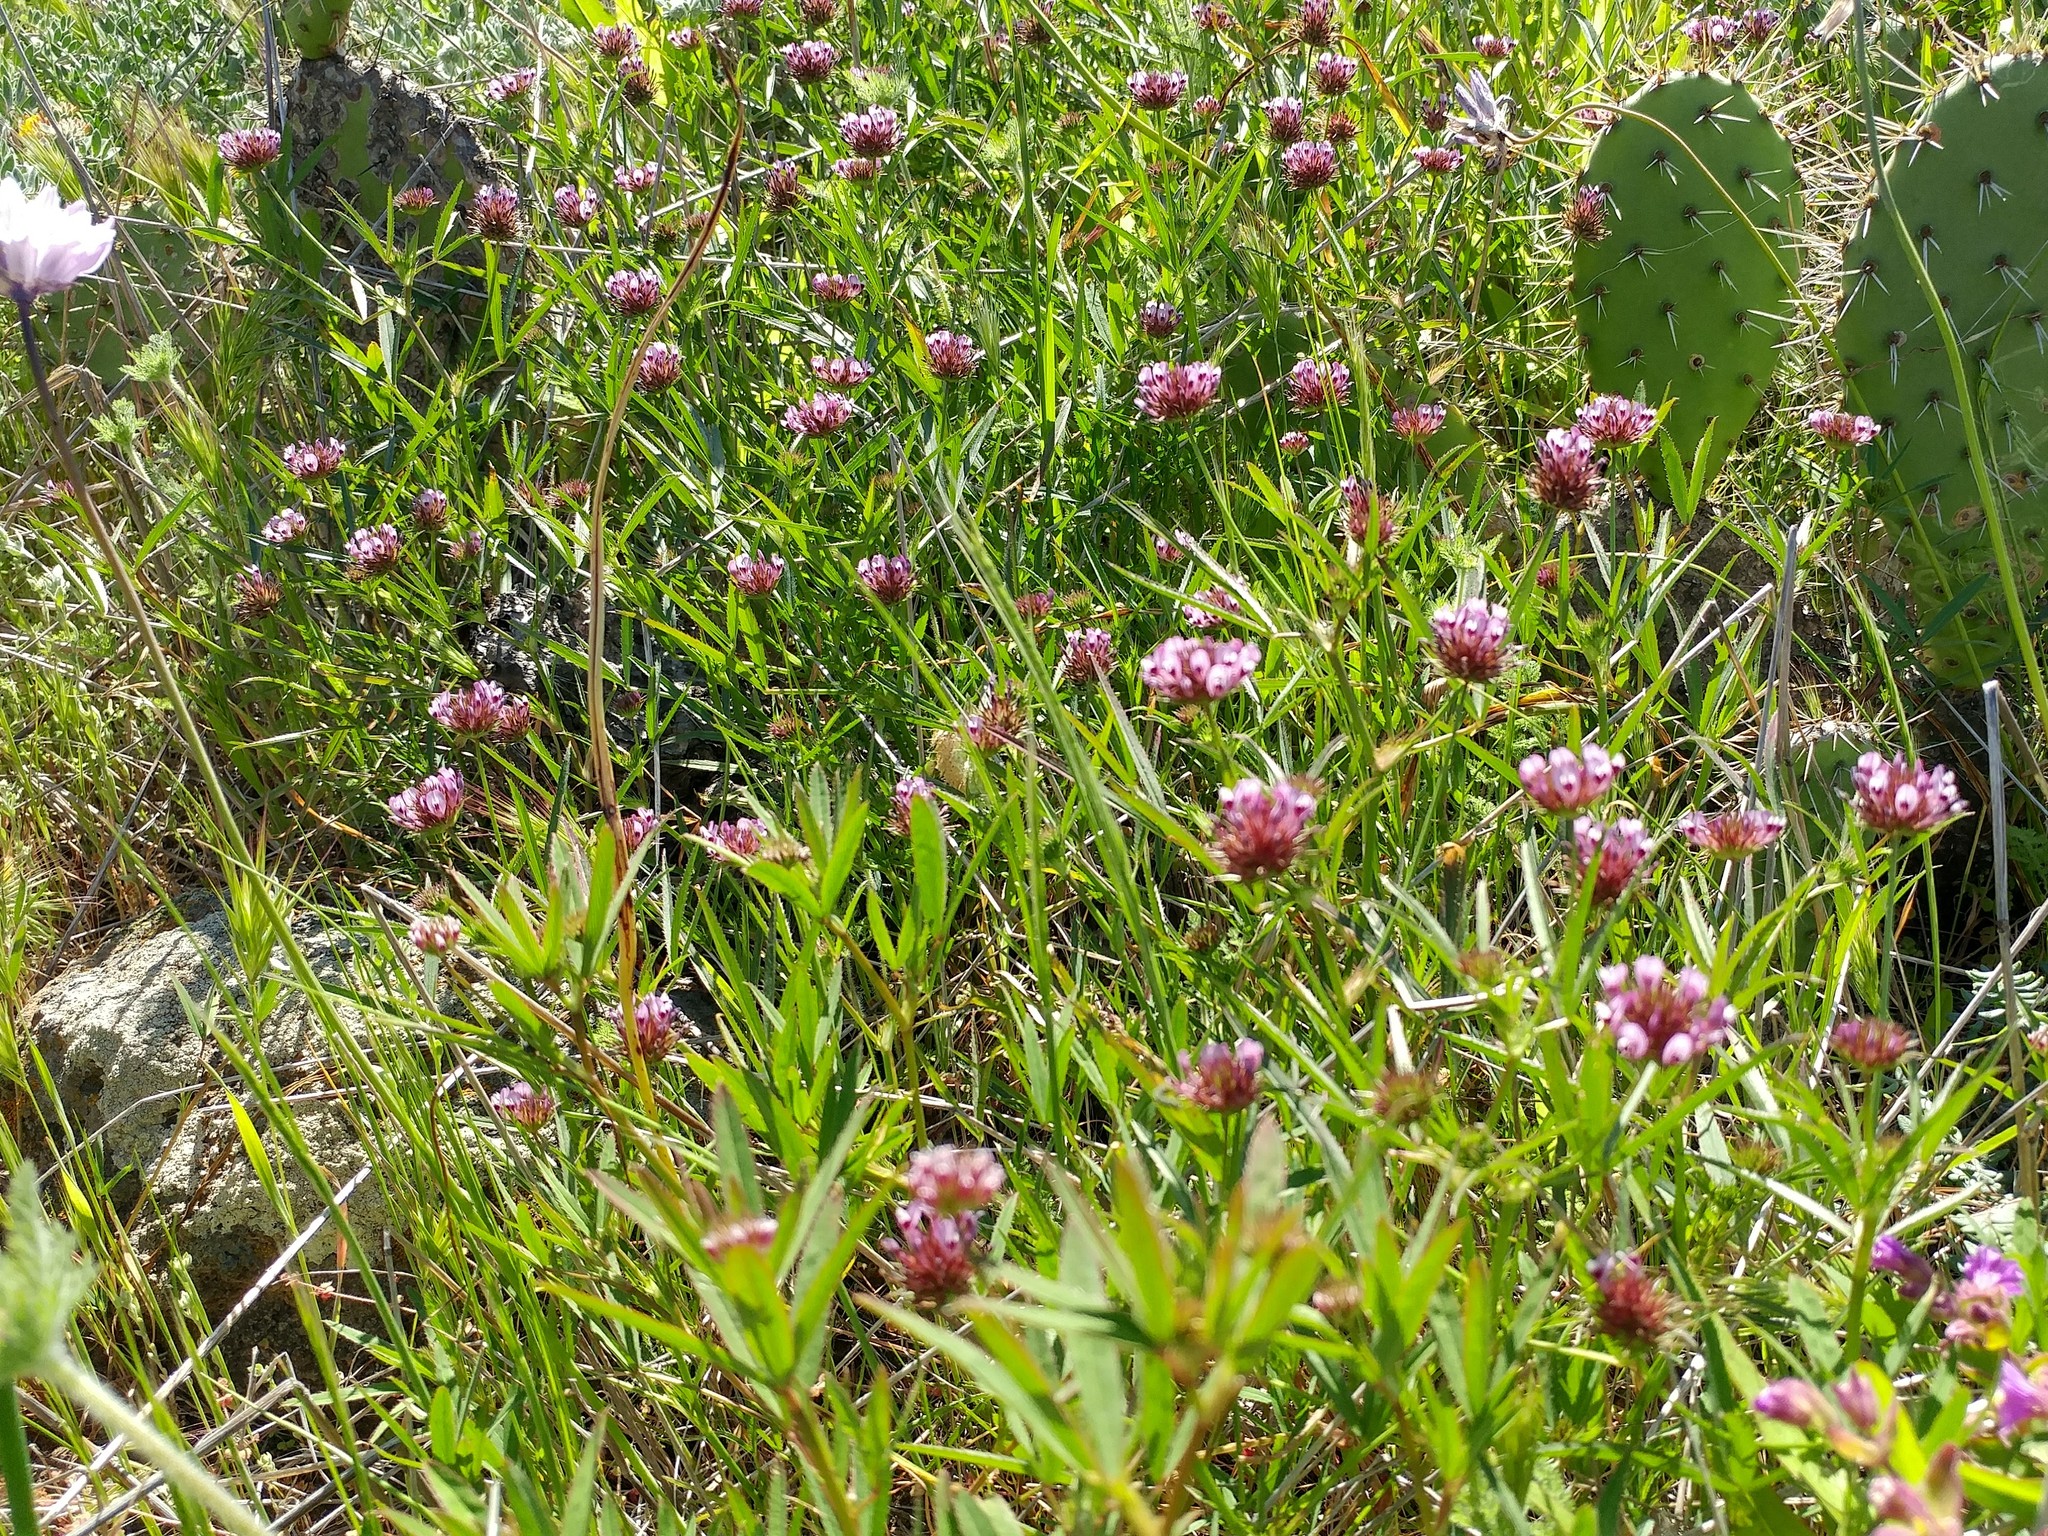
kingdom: Plantae
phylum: Tracheophyta
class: Magnoliopsida
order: Fabales
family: Fabaceae
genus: Trifolium
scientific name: Trifolium willdenovii
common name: Tomcat clover
